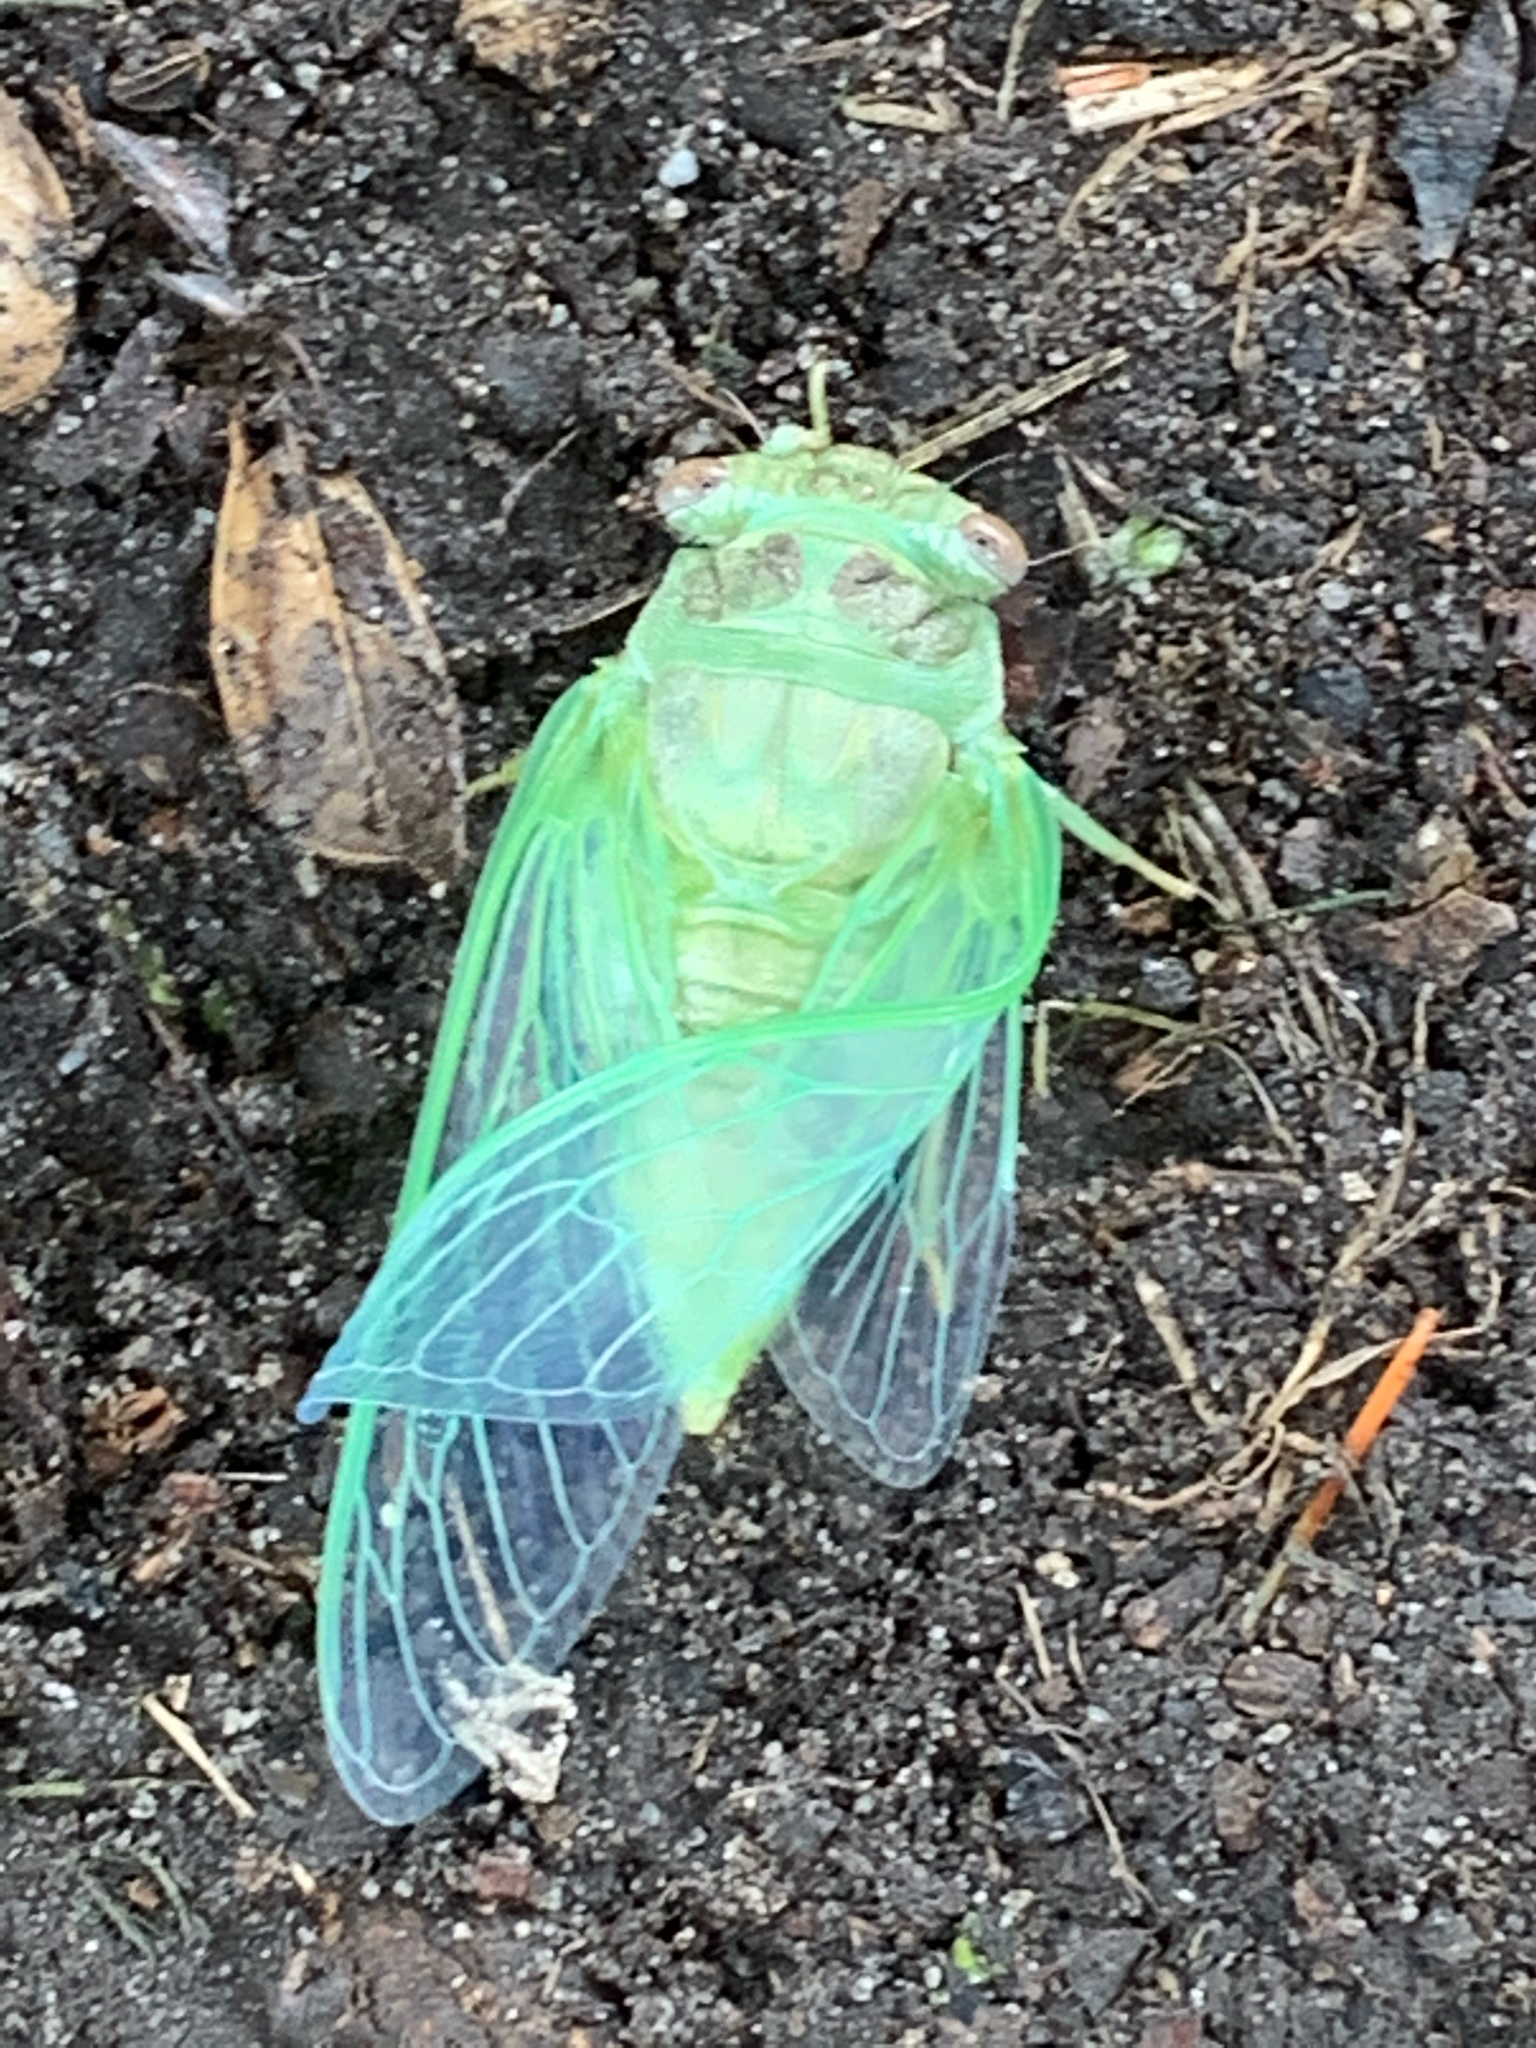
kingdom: Animalia
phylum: Arthropoda
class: Insecta
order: Hemiptera
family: Cicadidae
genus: Diceroprocta
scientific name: Diceroprocta grossa
